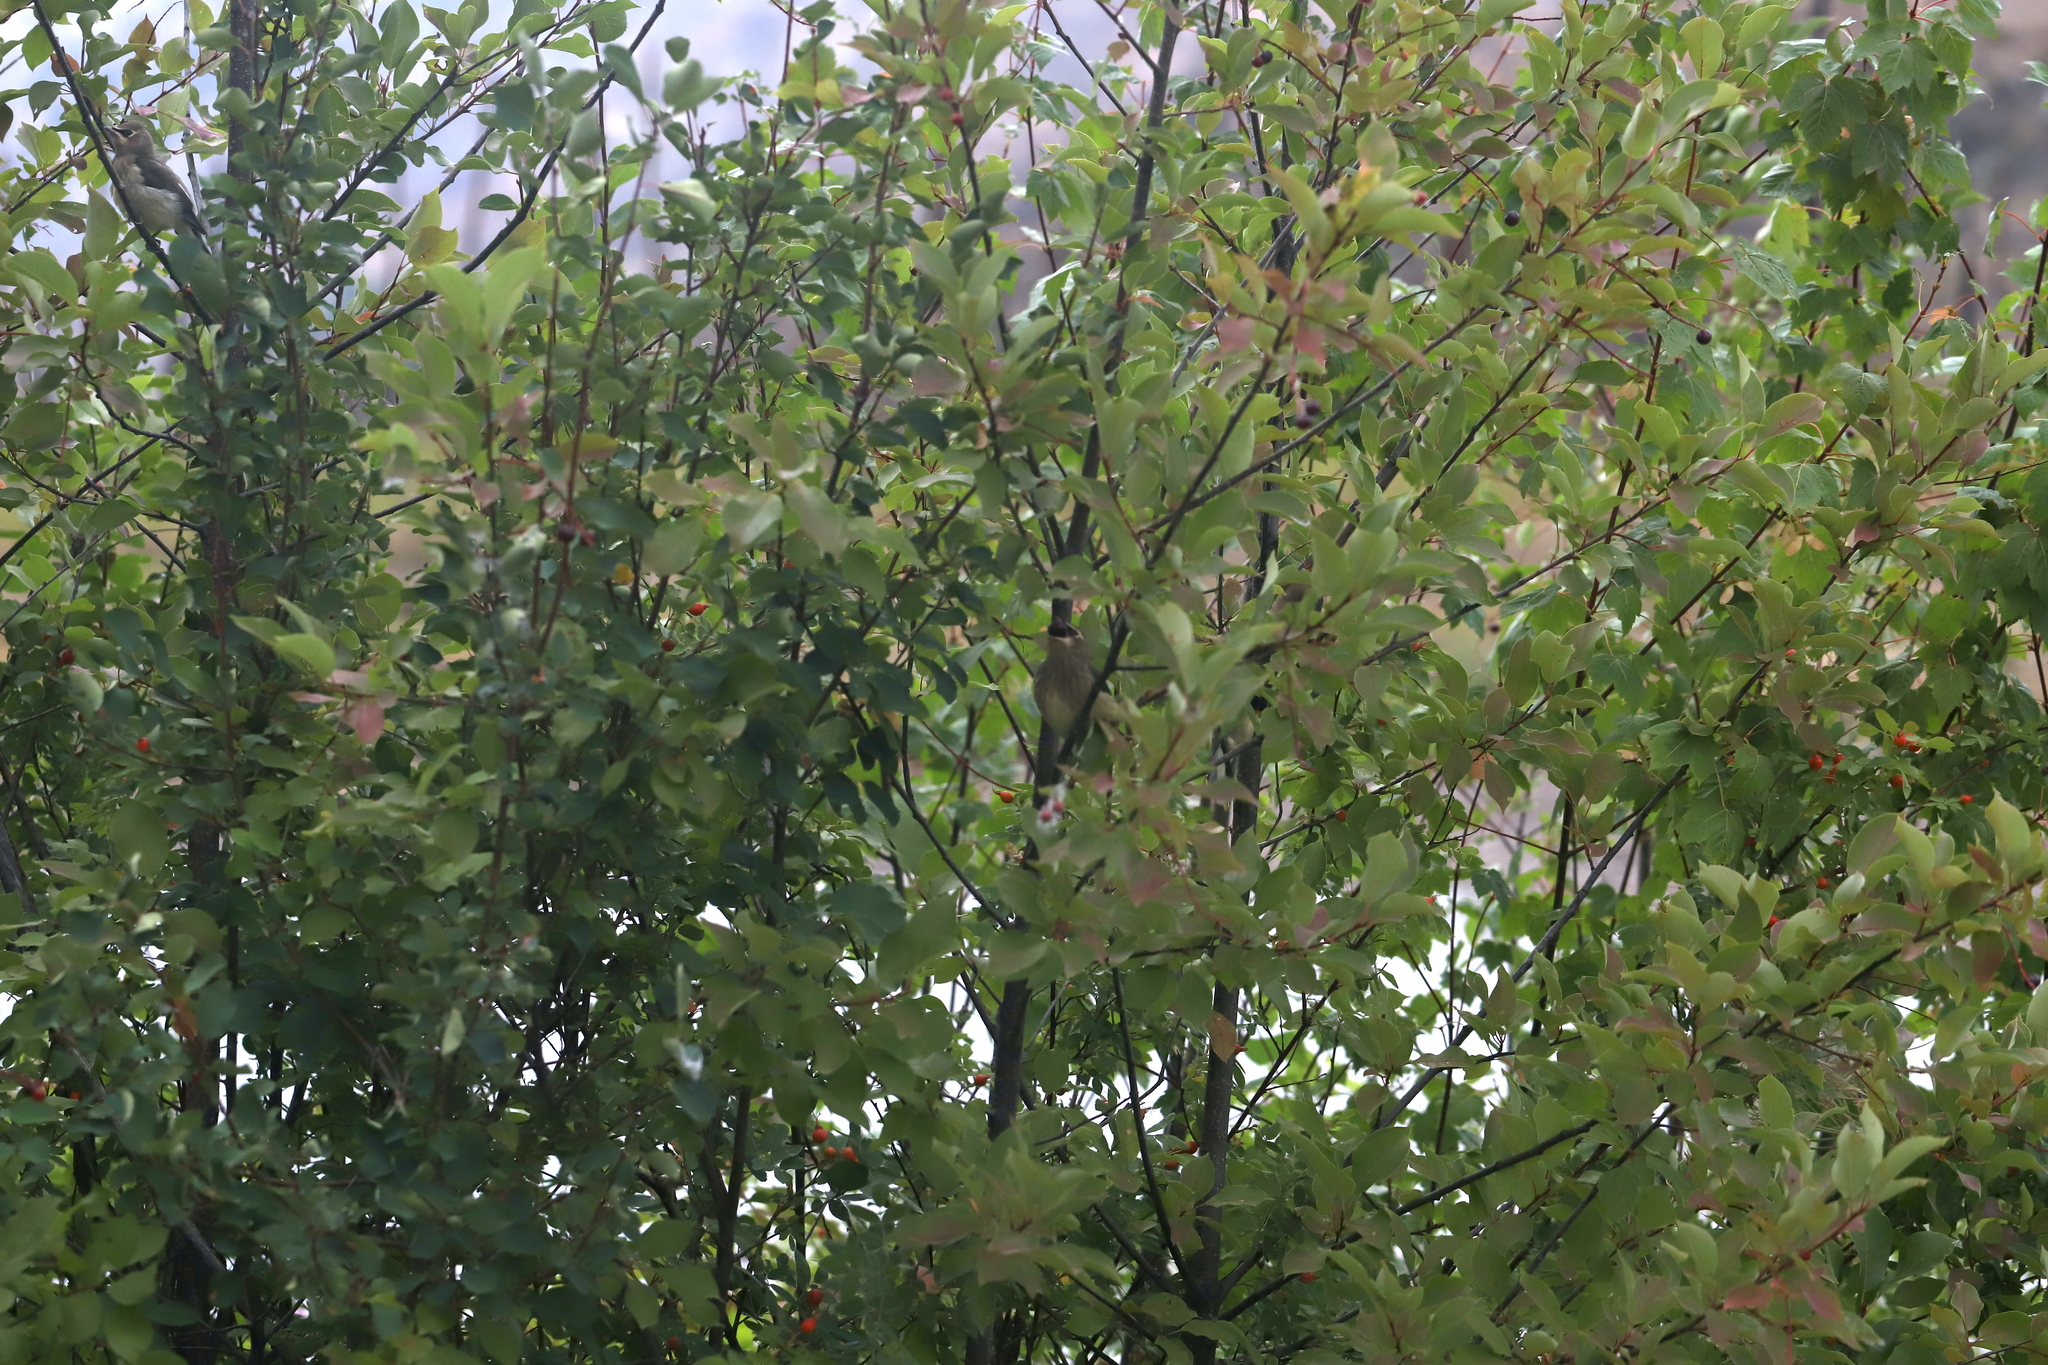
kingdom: Plantae
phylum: Tracheophyta
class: Magnoliopsida
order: Rosales
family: Rosaceae
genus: Prunus
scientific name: Prunus emarginata
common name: Bitter cherry
